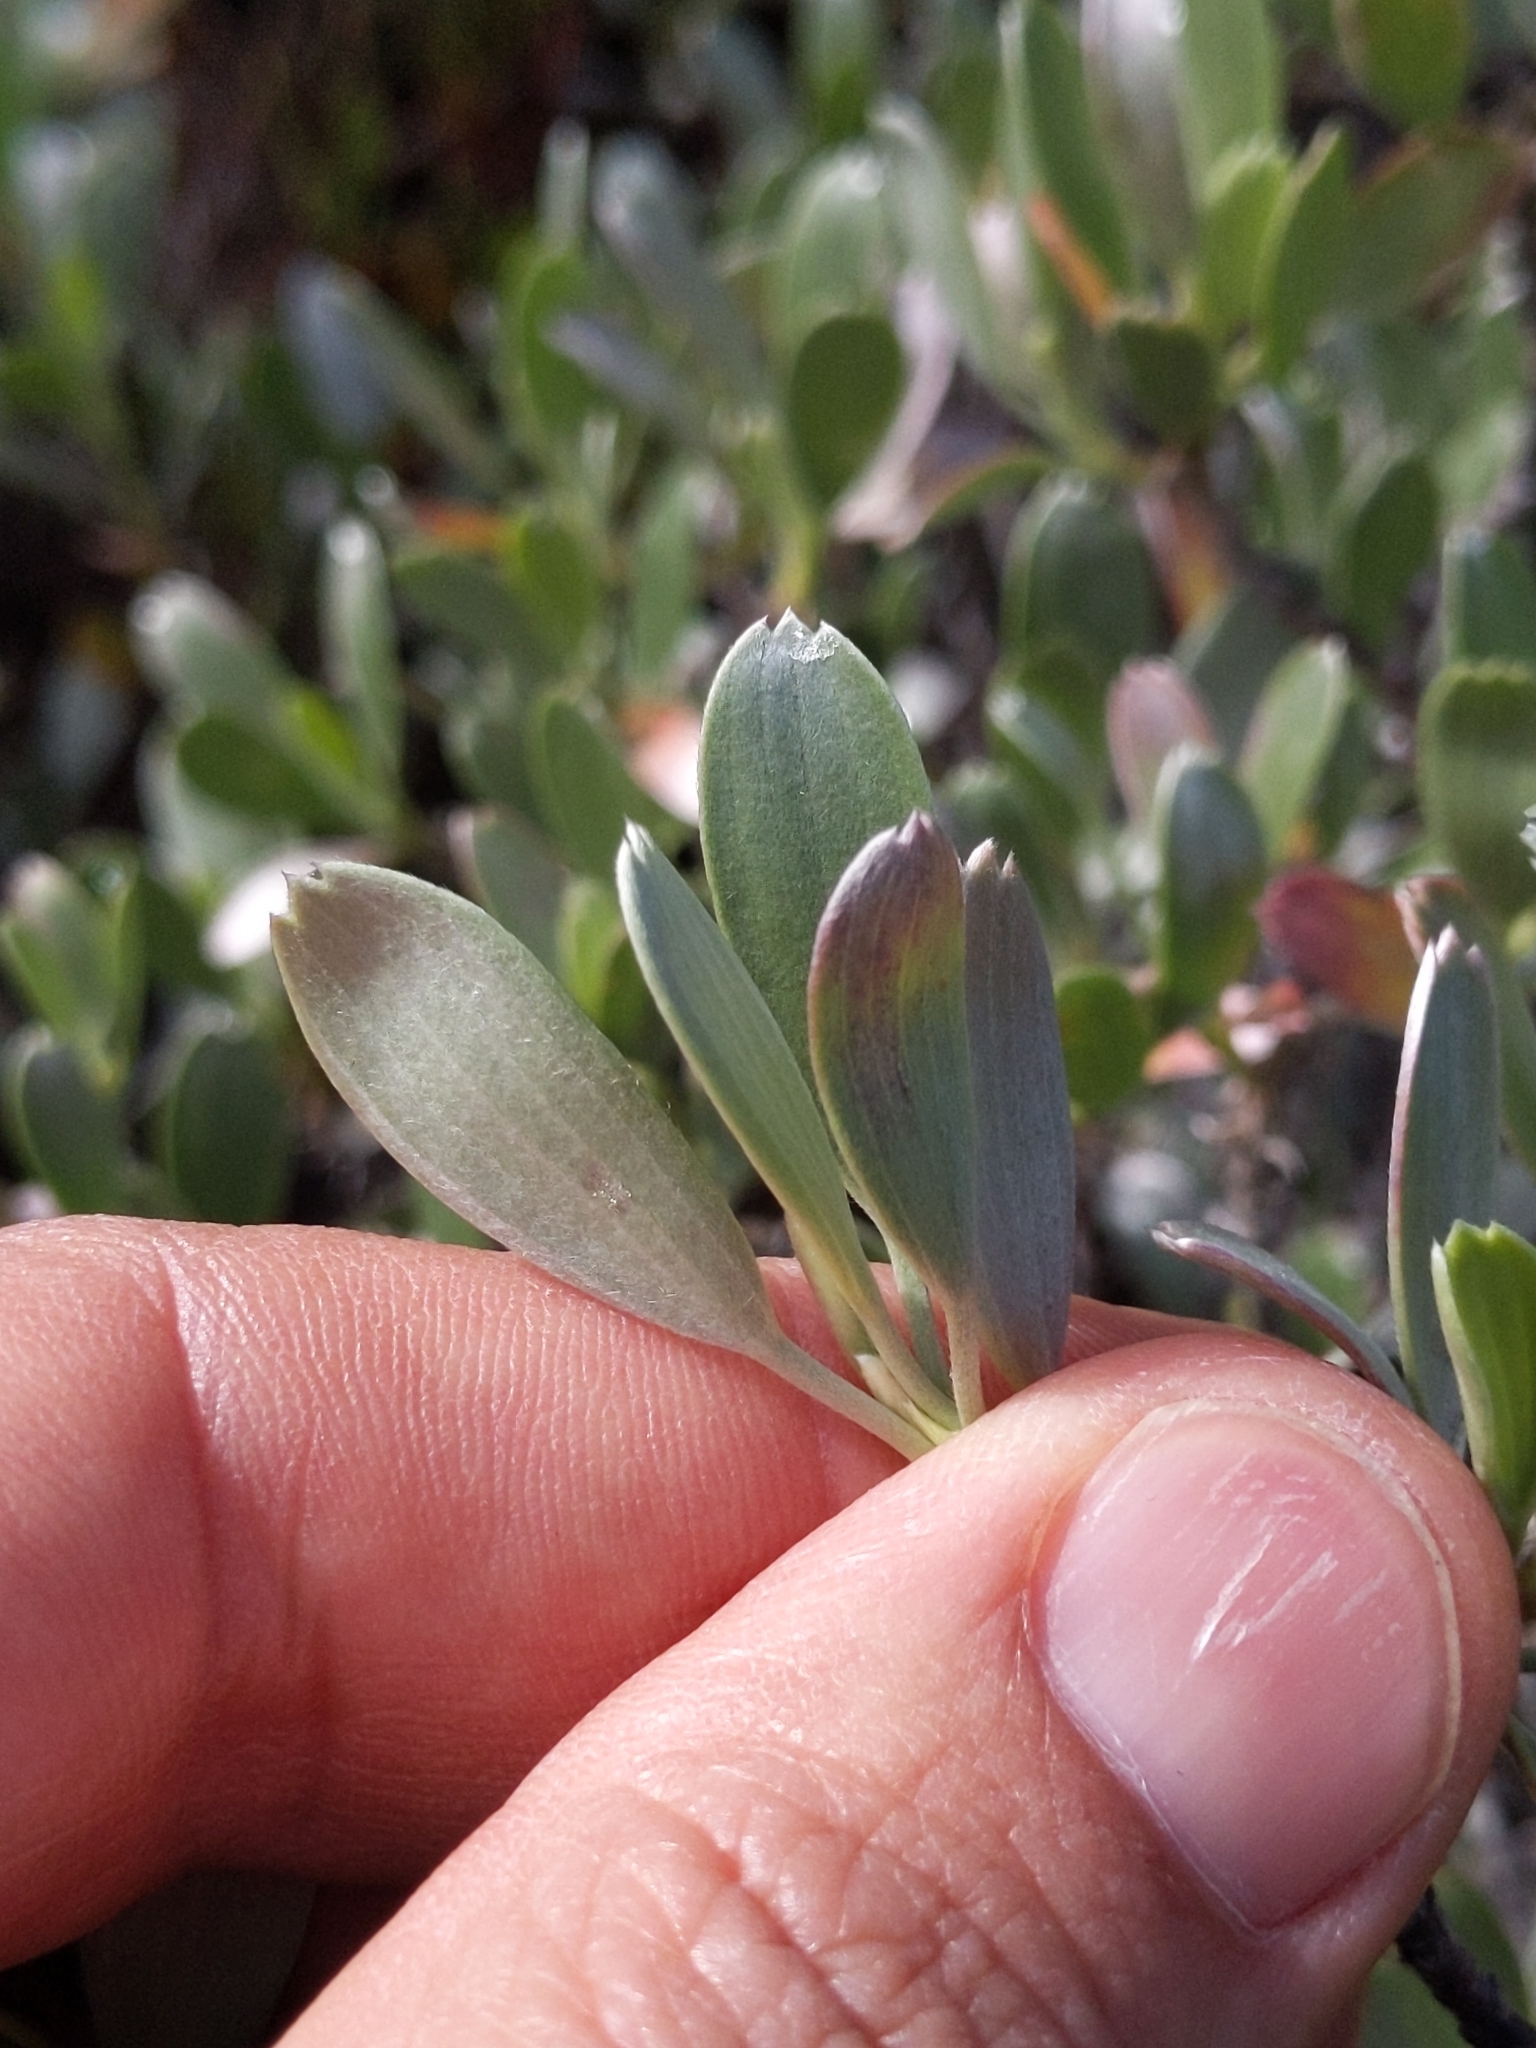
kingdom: Plantae
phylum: Tracheophyta
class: Magnoliopsida
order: Geraniales
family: Geraniaceae
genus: Geranium
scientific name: Geranium cuneatum
